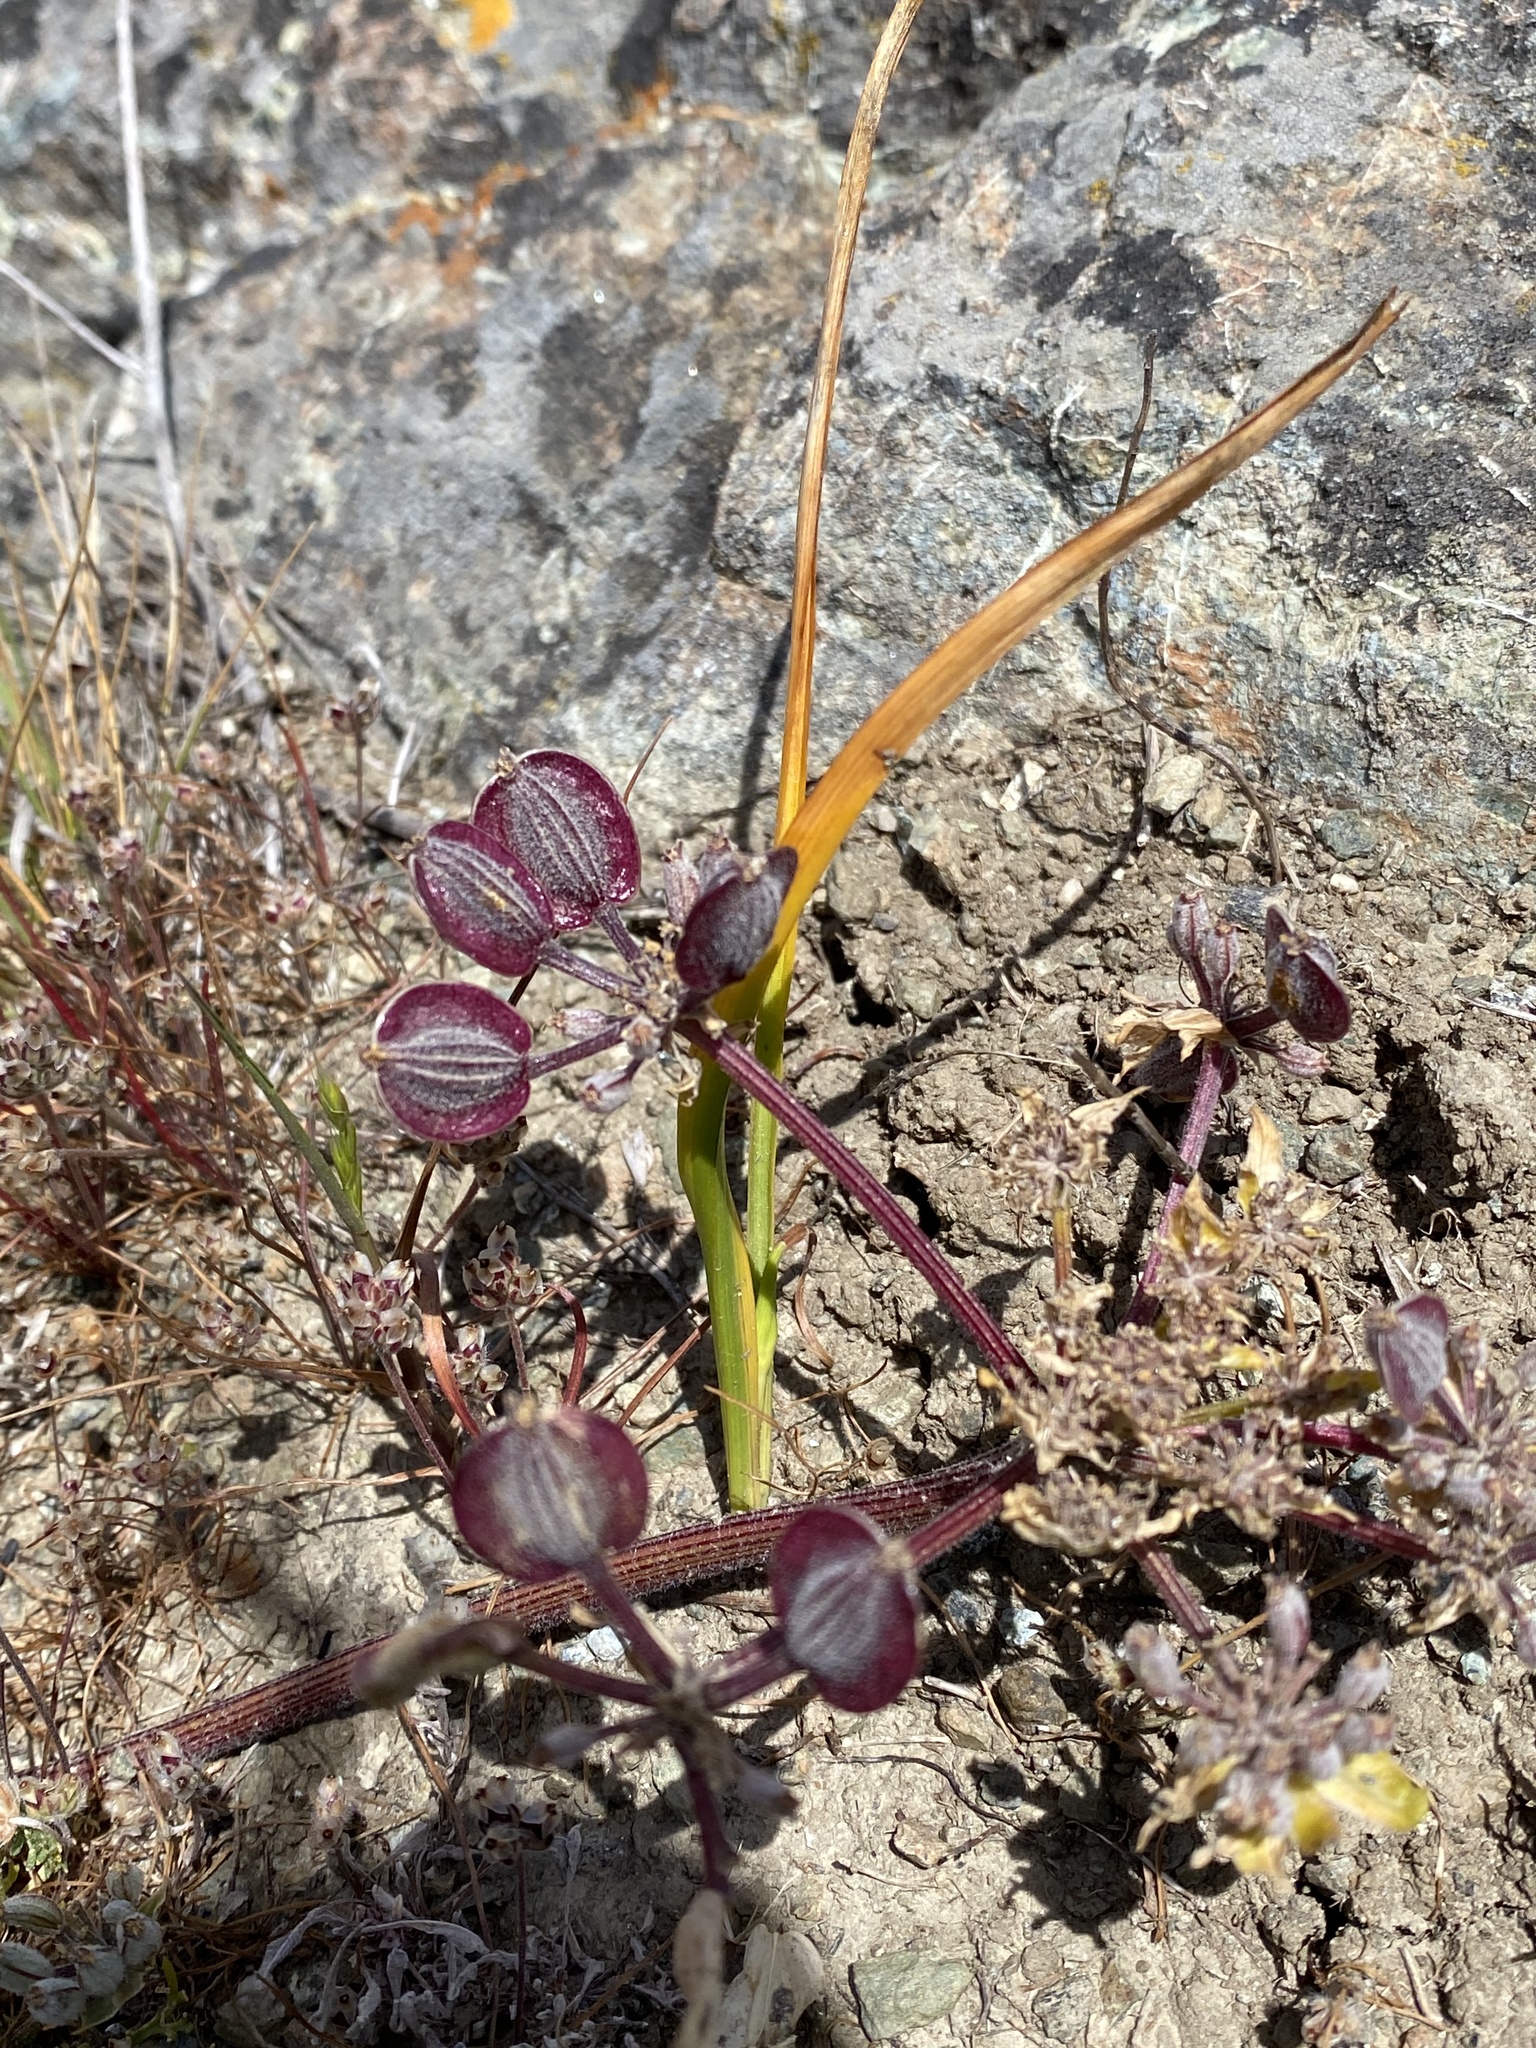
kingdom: Plantae
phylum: Tracheophyta
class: Magnoliopsida
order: Apiales
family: Apiaceae
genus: Lomatium
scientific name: Lomatium dasycarpum
